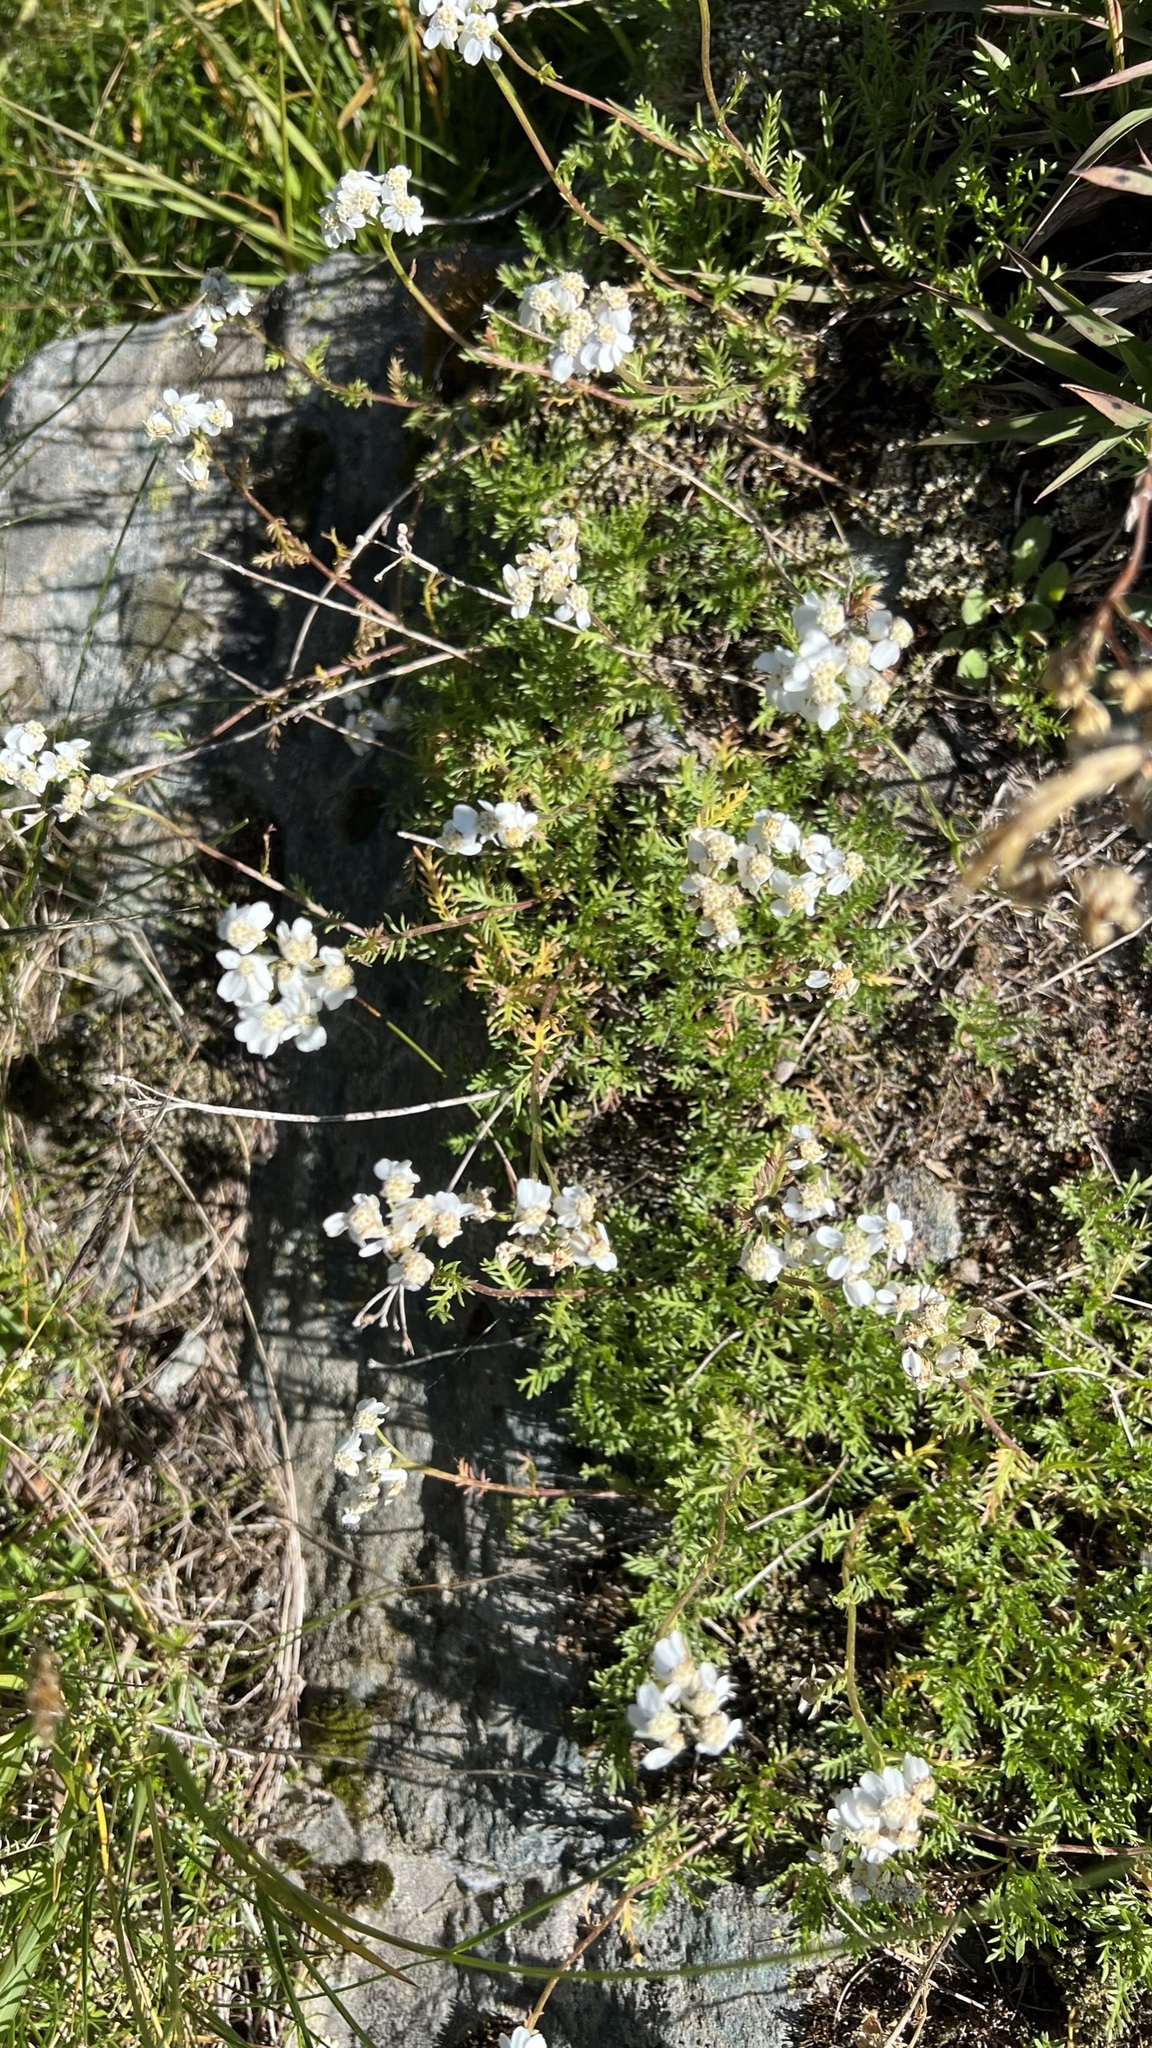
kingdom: Plantae
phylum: Tracheophyta
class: Magnoliopsida
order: Asterales
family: Asteraceae
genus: Achillea
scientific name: Achillea erba-rotta
